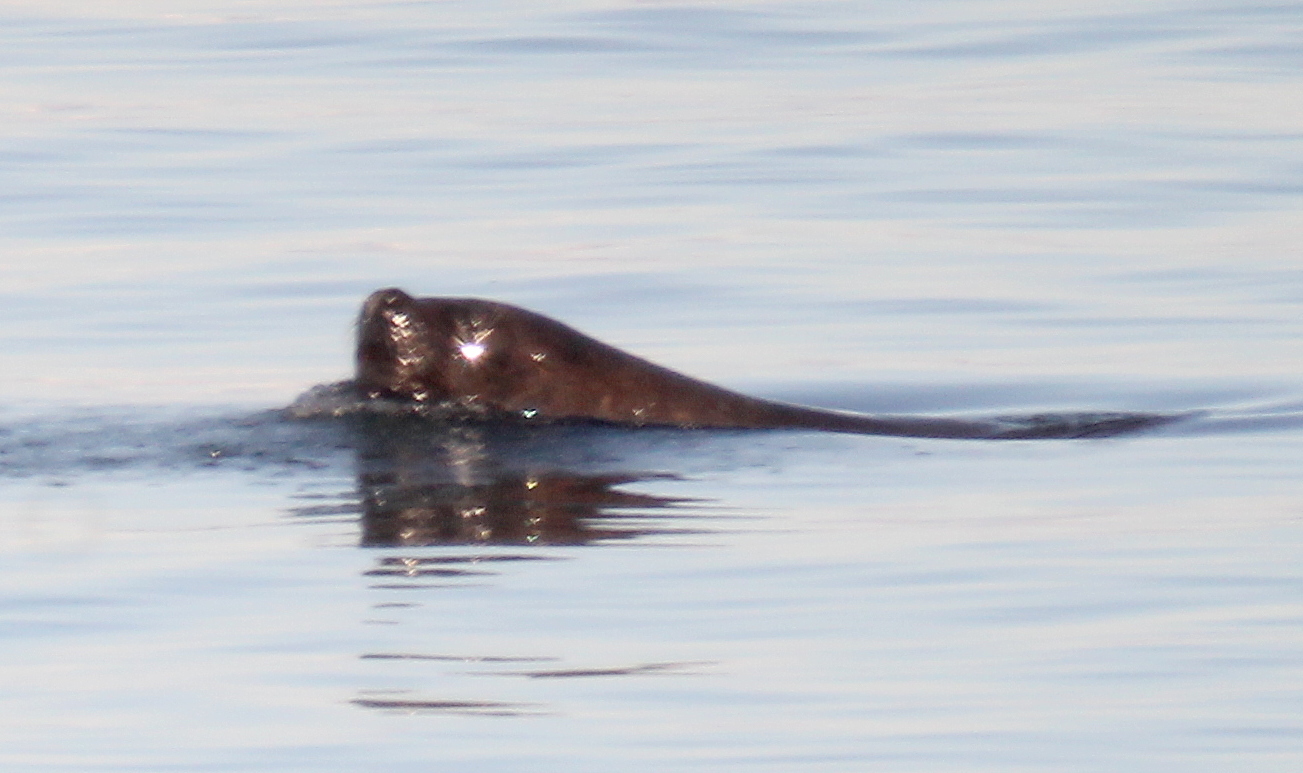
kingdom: Animalia
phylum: Chordata
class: Mammalia
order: Carnivora
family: Otariidae
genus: Otaria
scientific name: Otaria byronia
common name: South american sea lion
